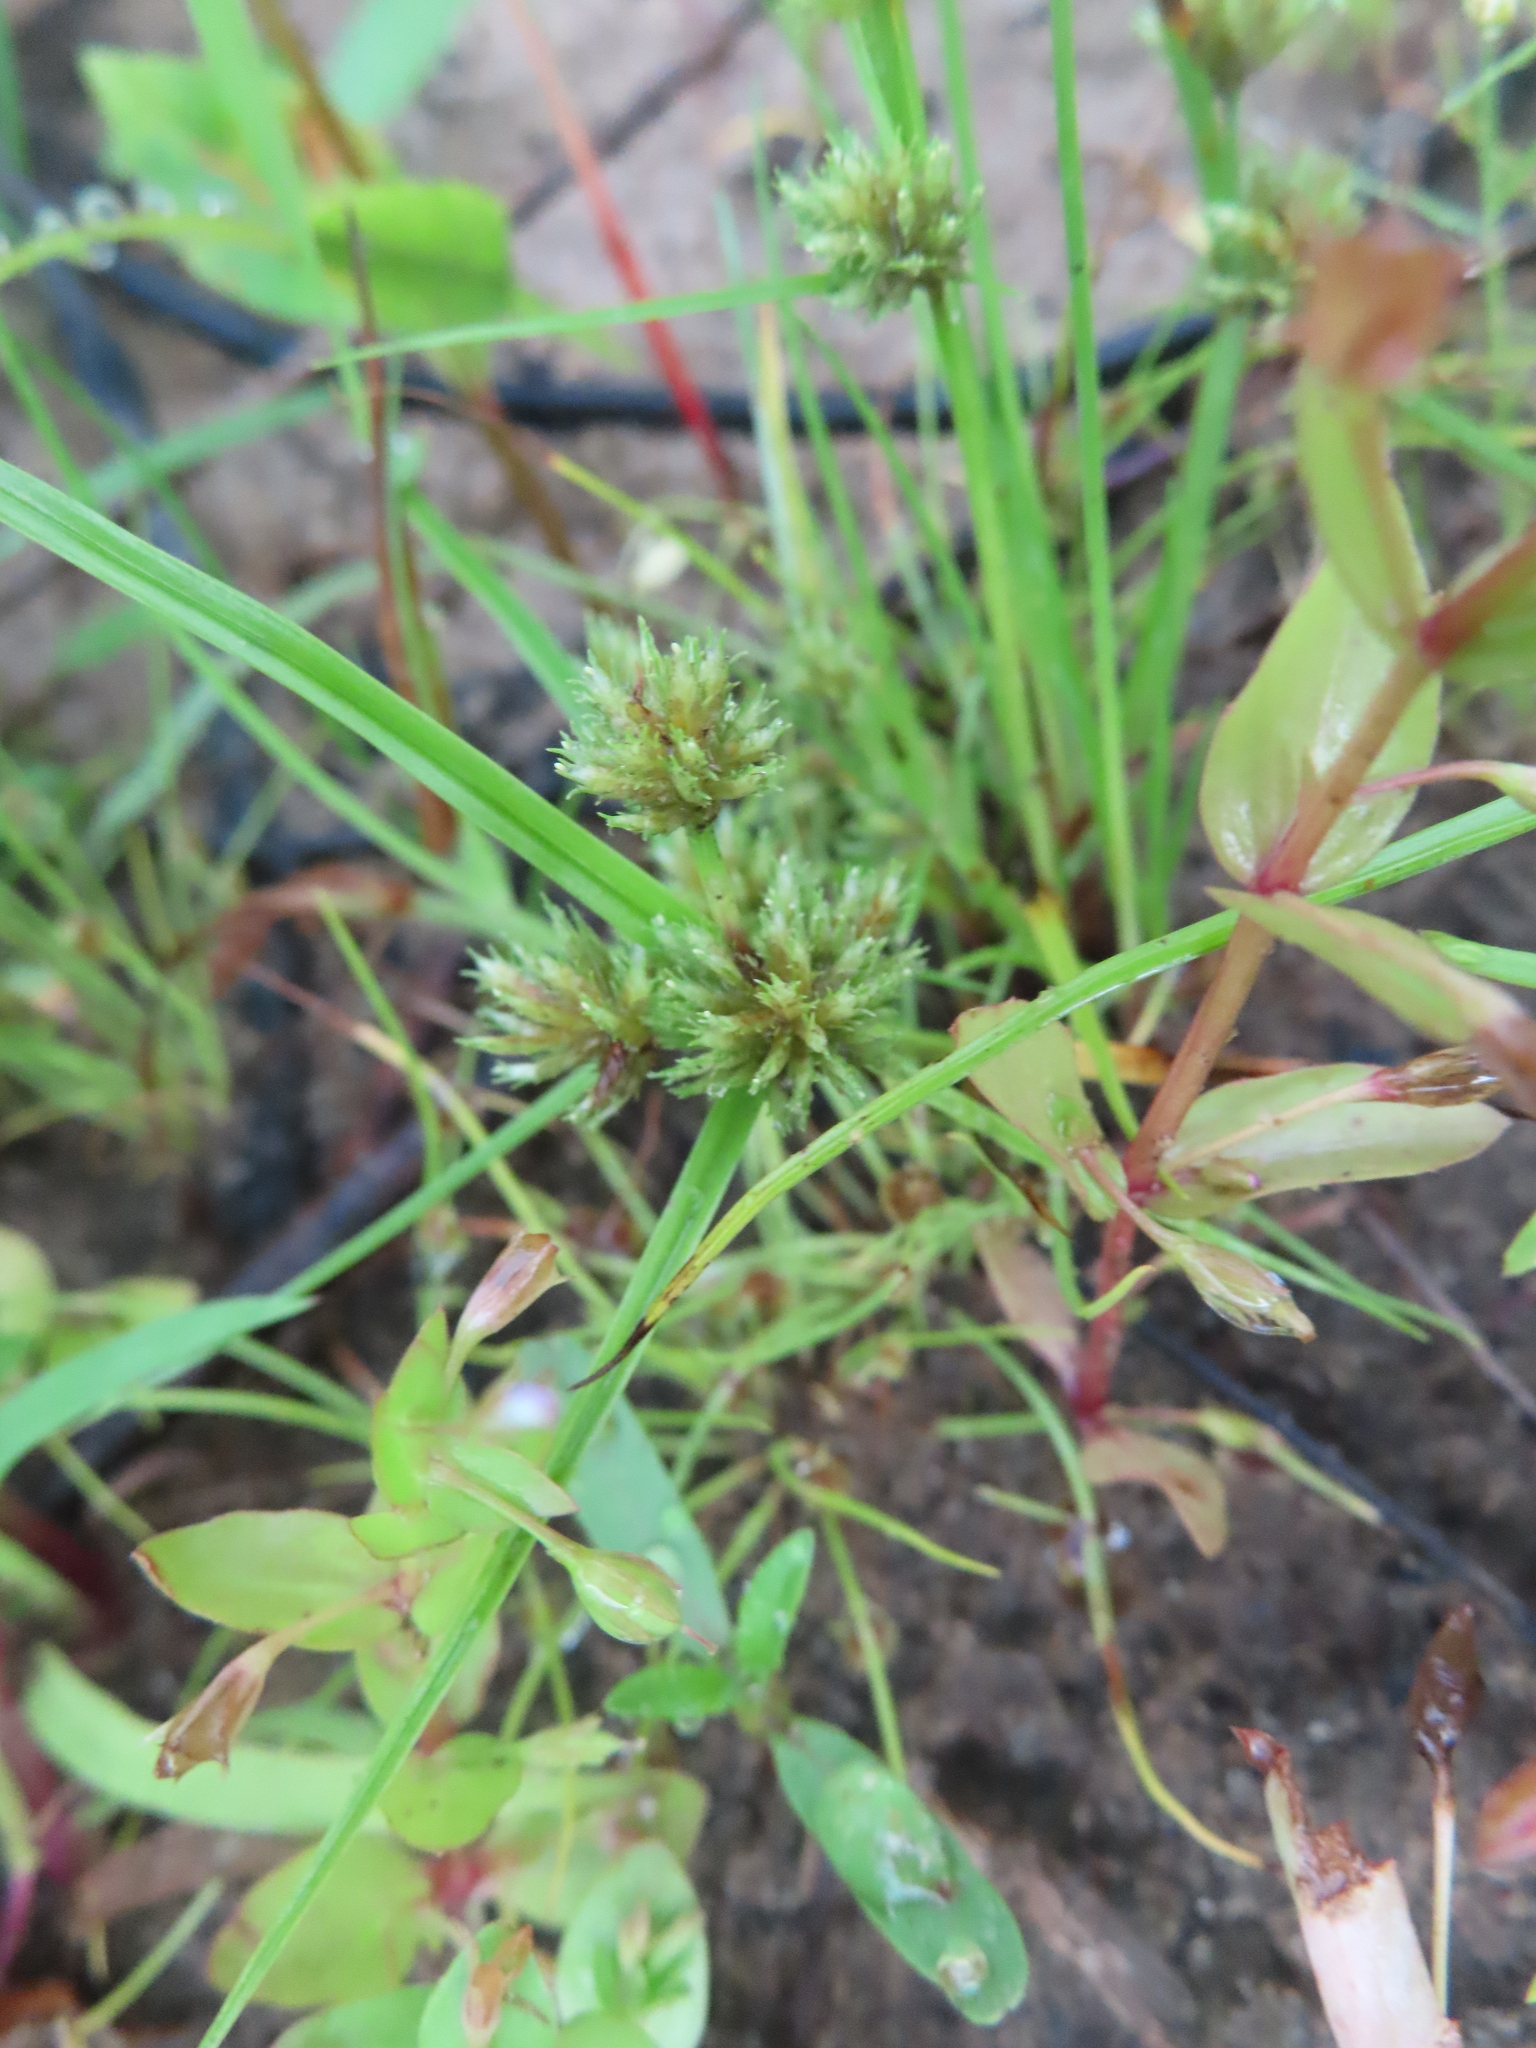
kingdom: Plantae
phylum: Tracheophyta
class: Liliopsida
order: Poales
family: Cyperaceae
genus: Cyperus
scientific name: Cyperus squarrosus
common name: Awned cyperus
